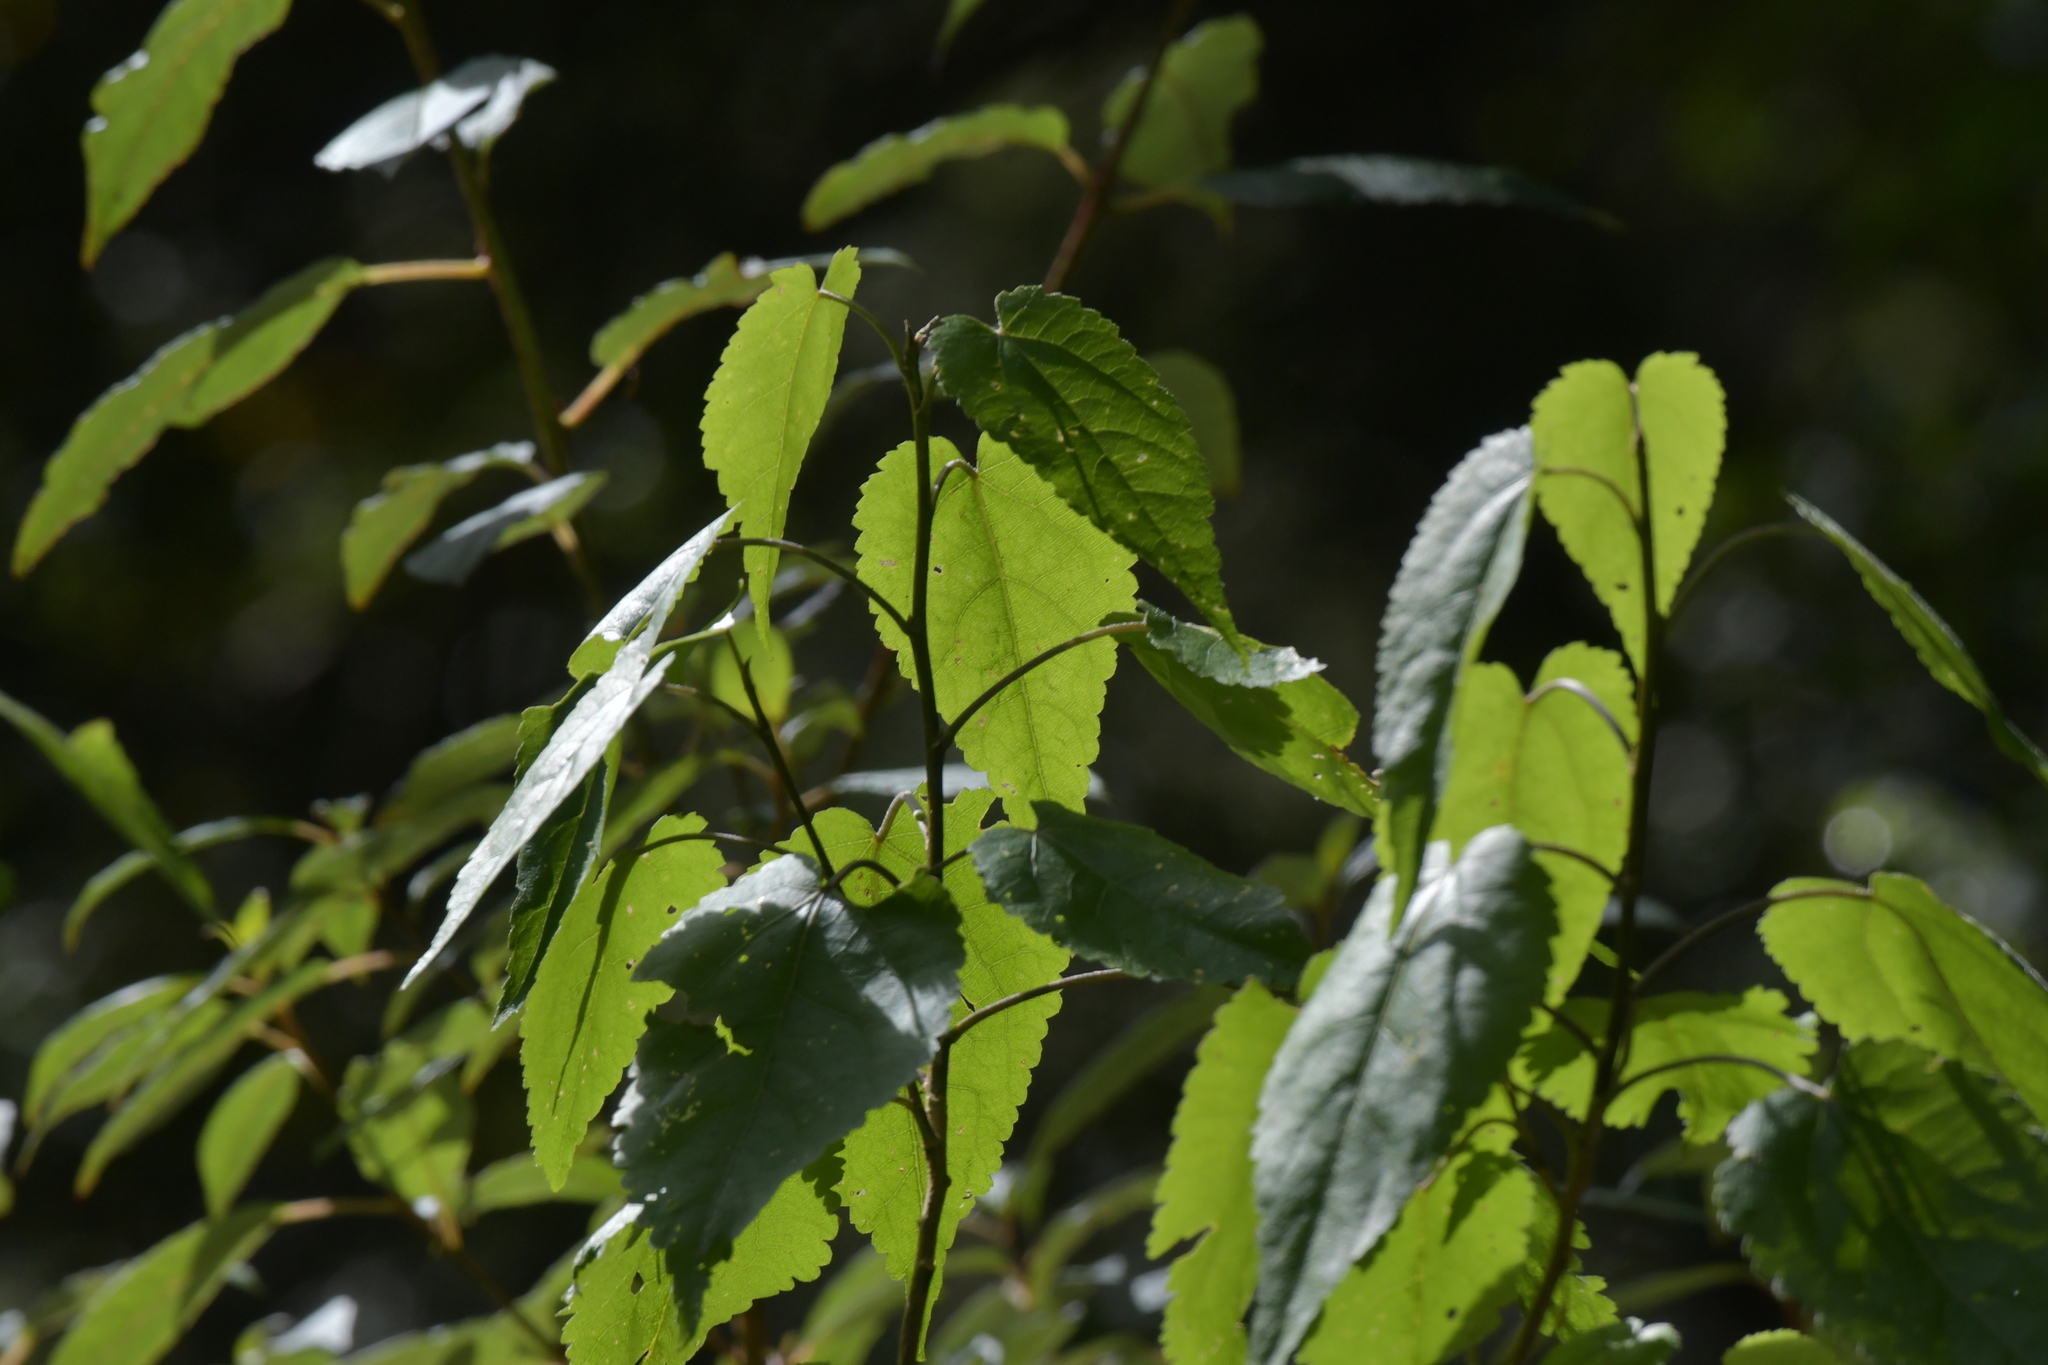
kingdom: Plantae
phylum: Tracheophyta
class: Magnoliopsida
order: Malvales
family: Malvaceae
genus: Hoheria
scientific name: Hoheria glabrata
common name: Mountain-ribbon
